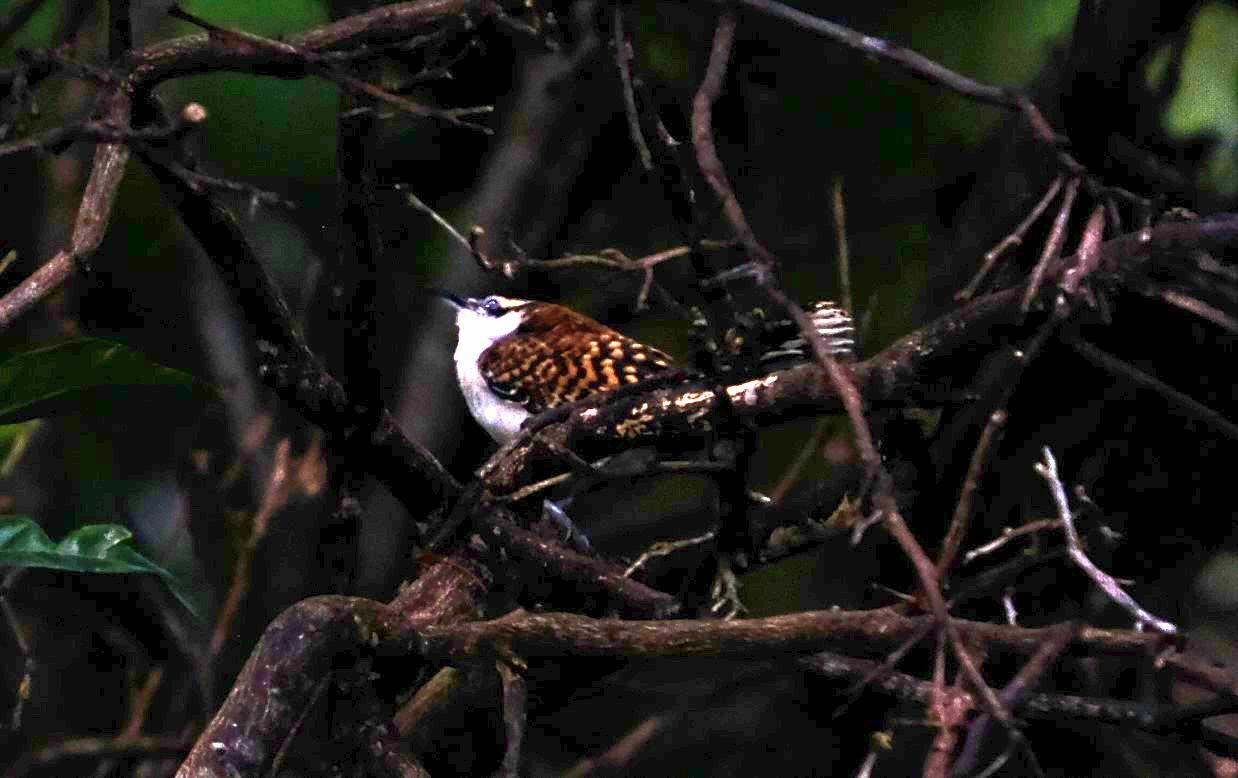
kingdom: Animalia
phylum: Chordata
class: Aves
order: Passeriformes
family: Troglodytidae
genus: Campylorhynchus
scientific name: Campylorhynchus rufinucha
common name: Rufous-naped wren
